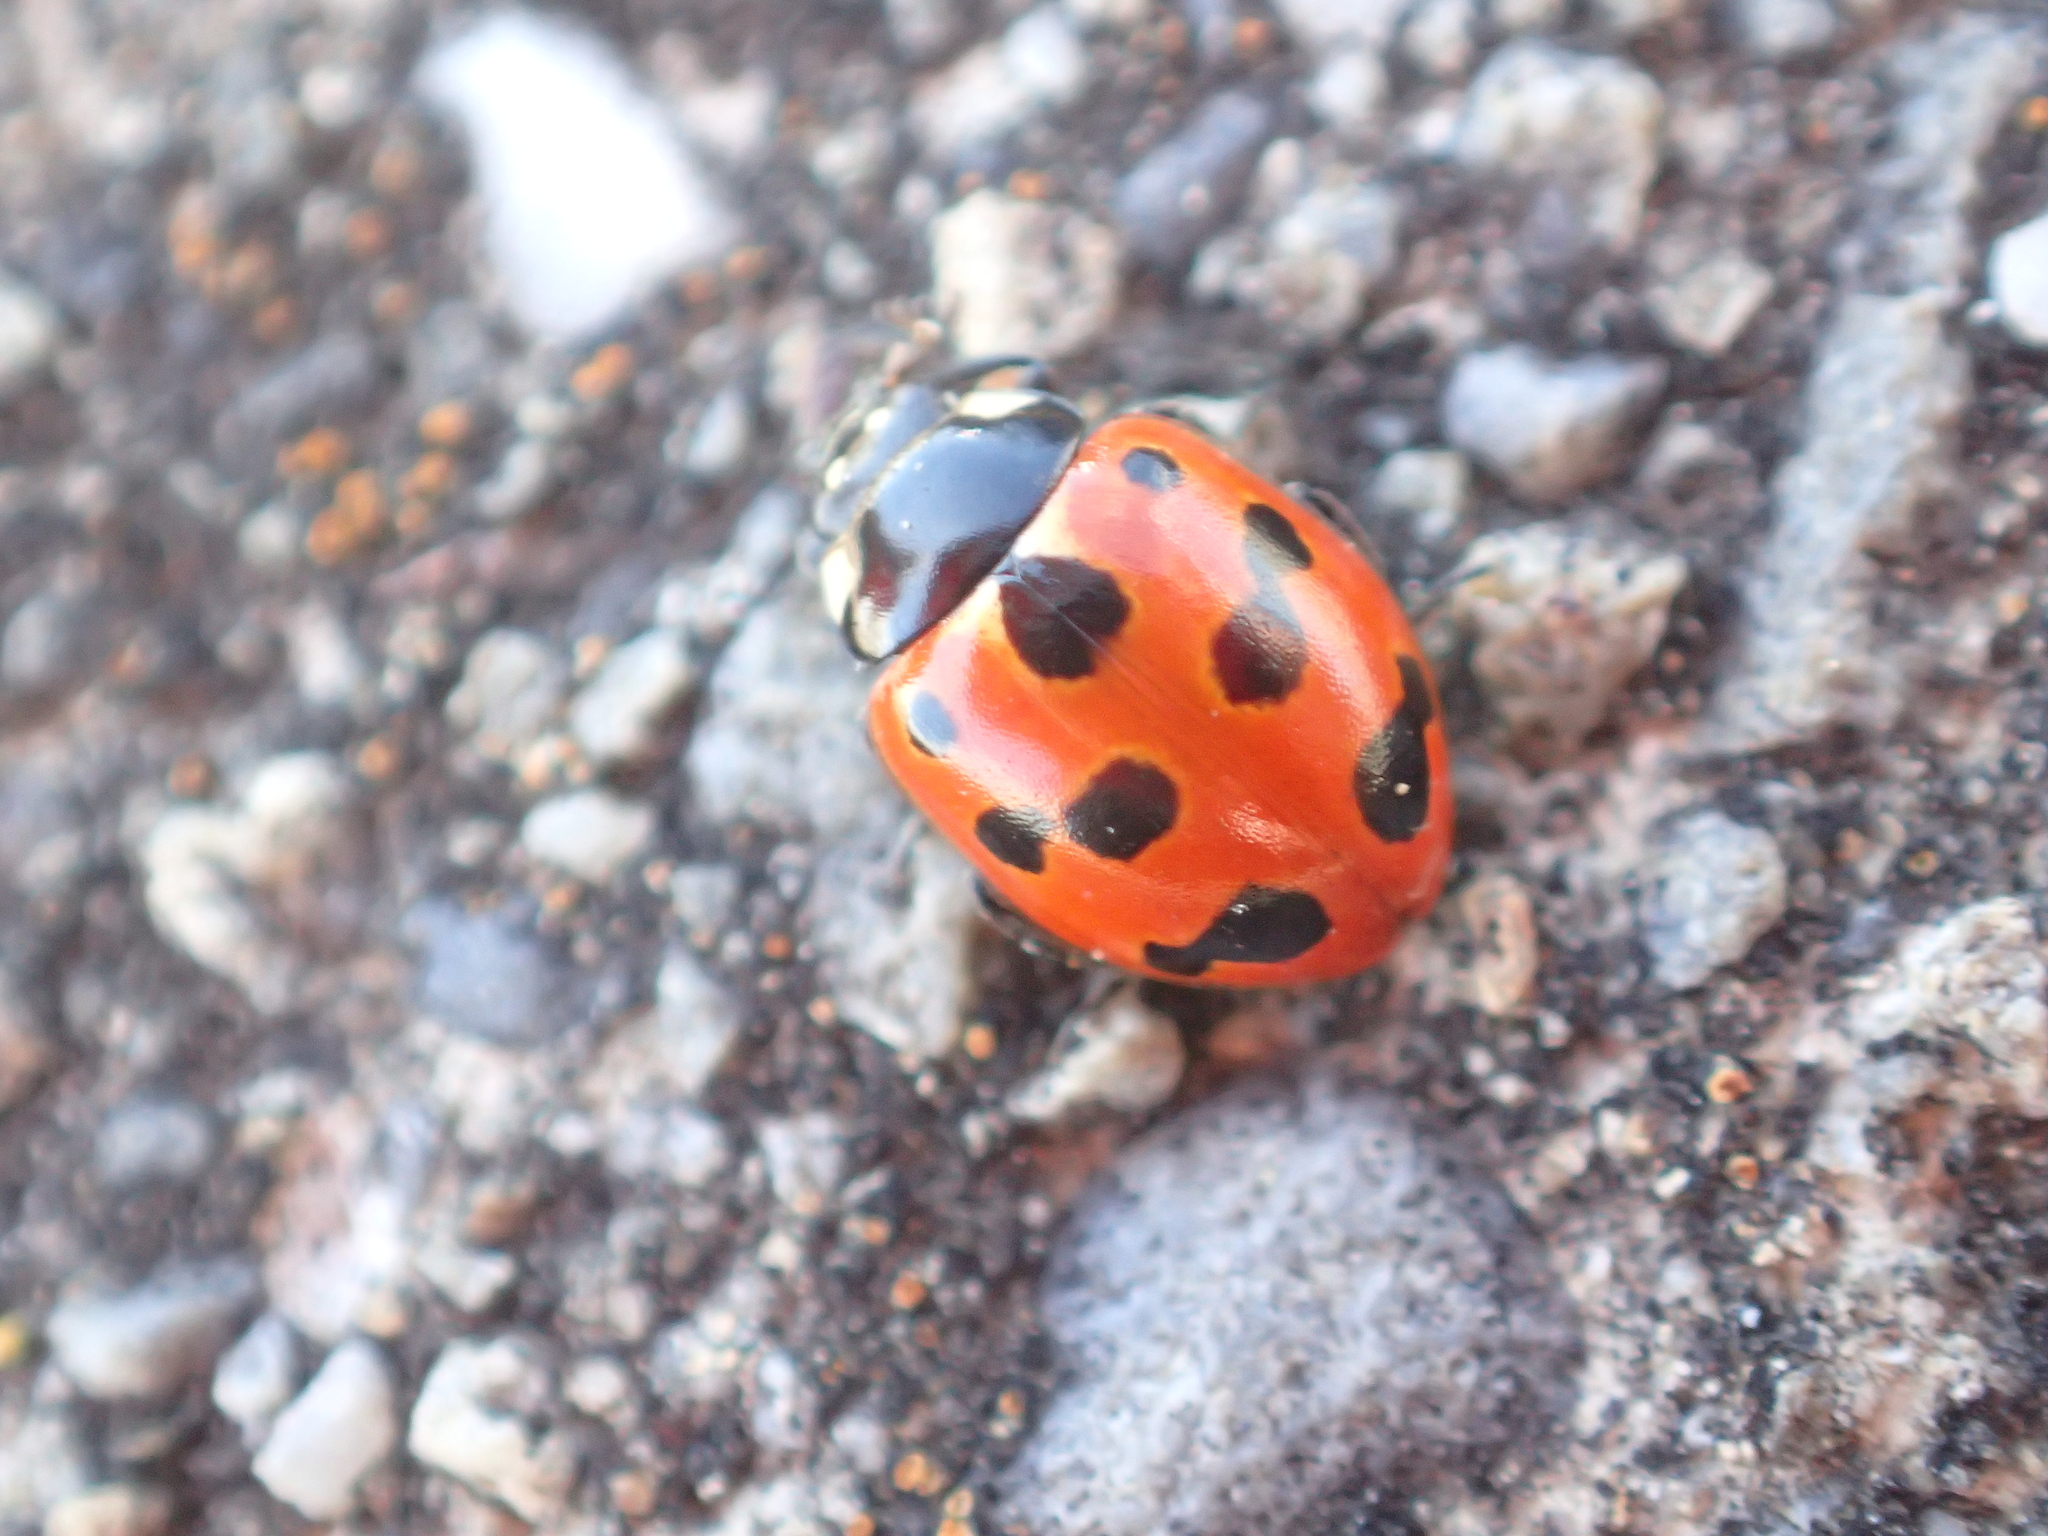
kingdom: Animalia
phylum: Arthropoda
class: Insecta
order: Coleoptera
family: Coccinellidae
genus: Coccinella
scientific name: Coccinella undecimpunctata
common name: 11-spot ladybird
